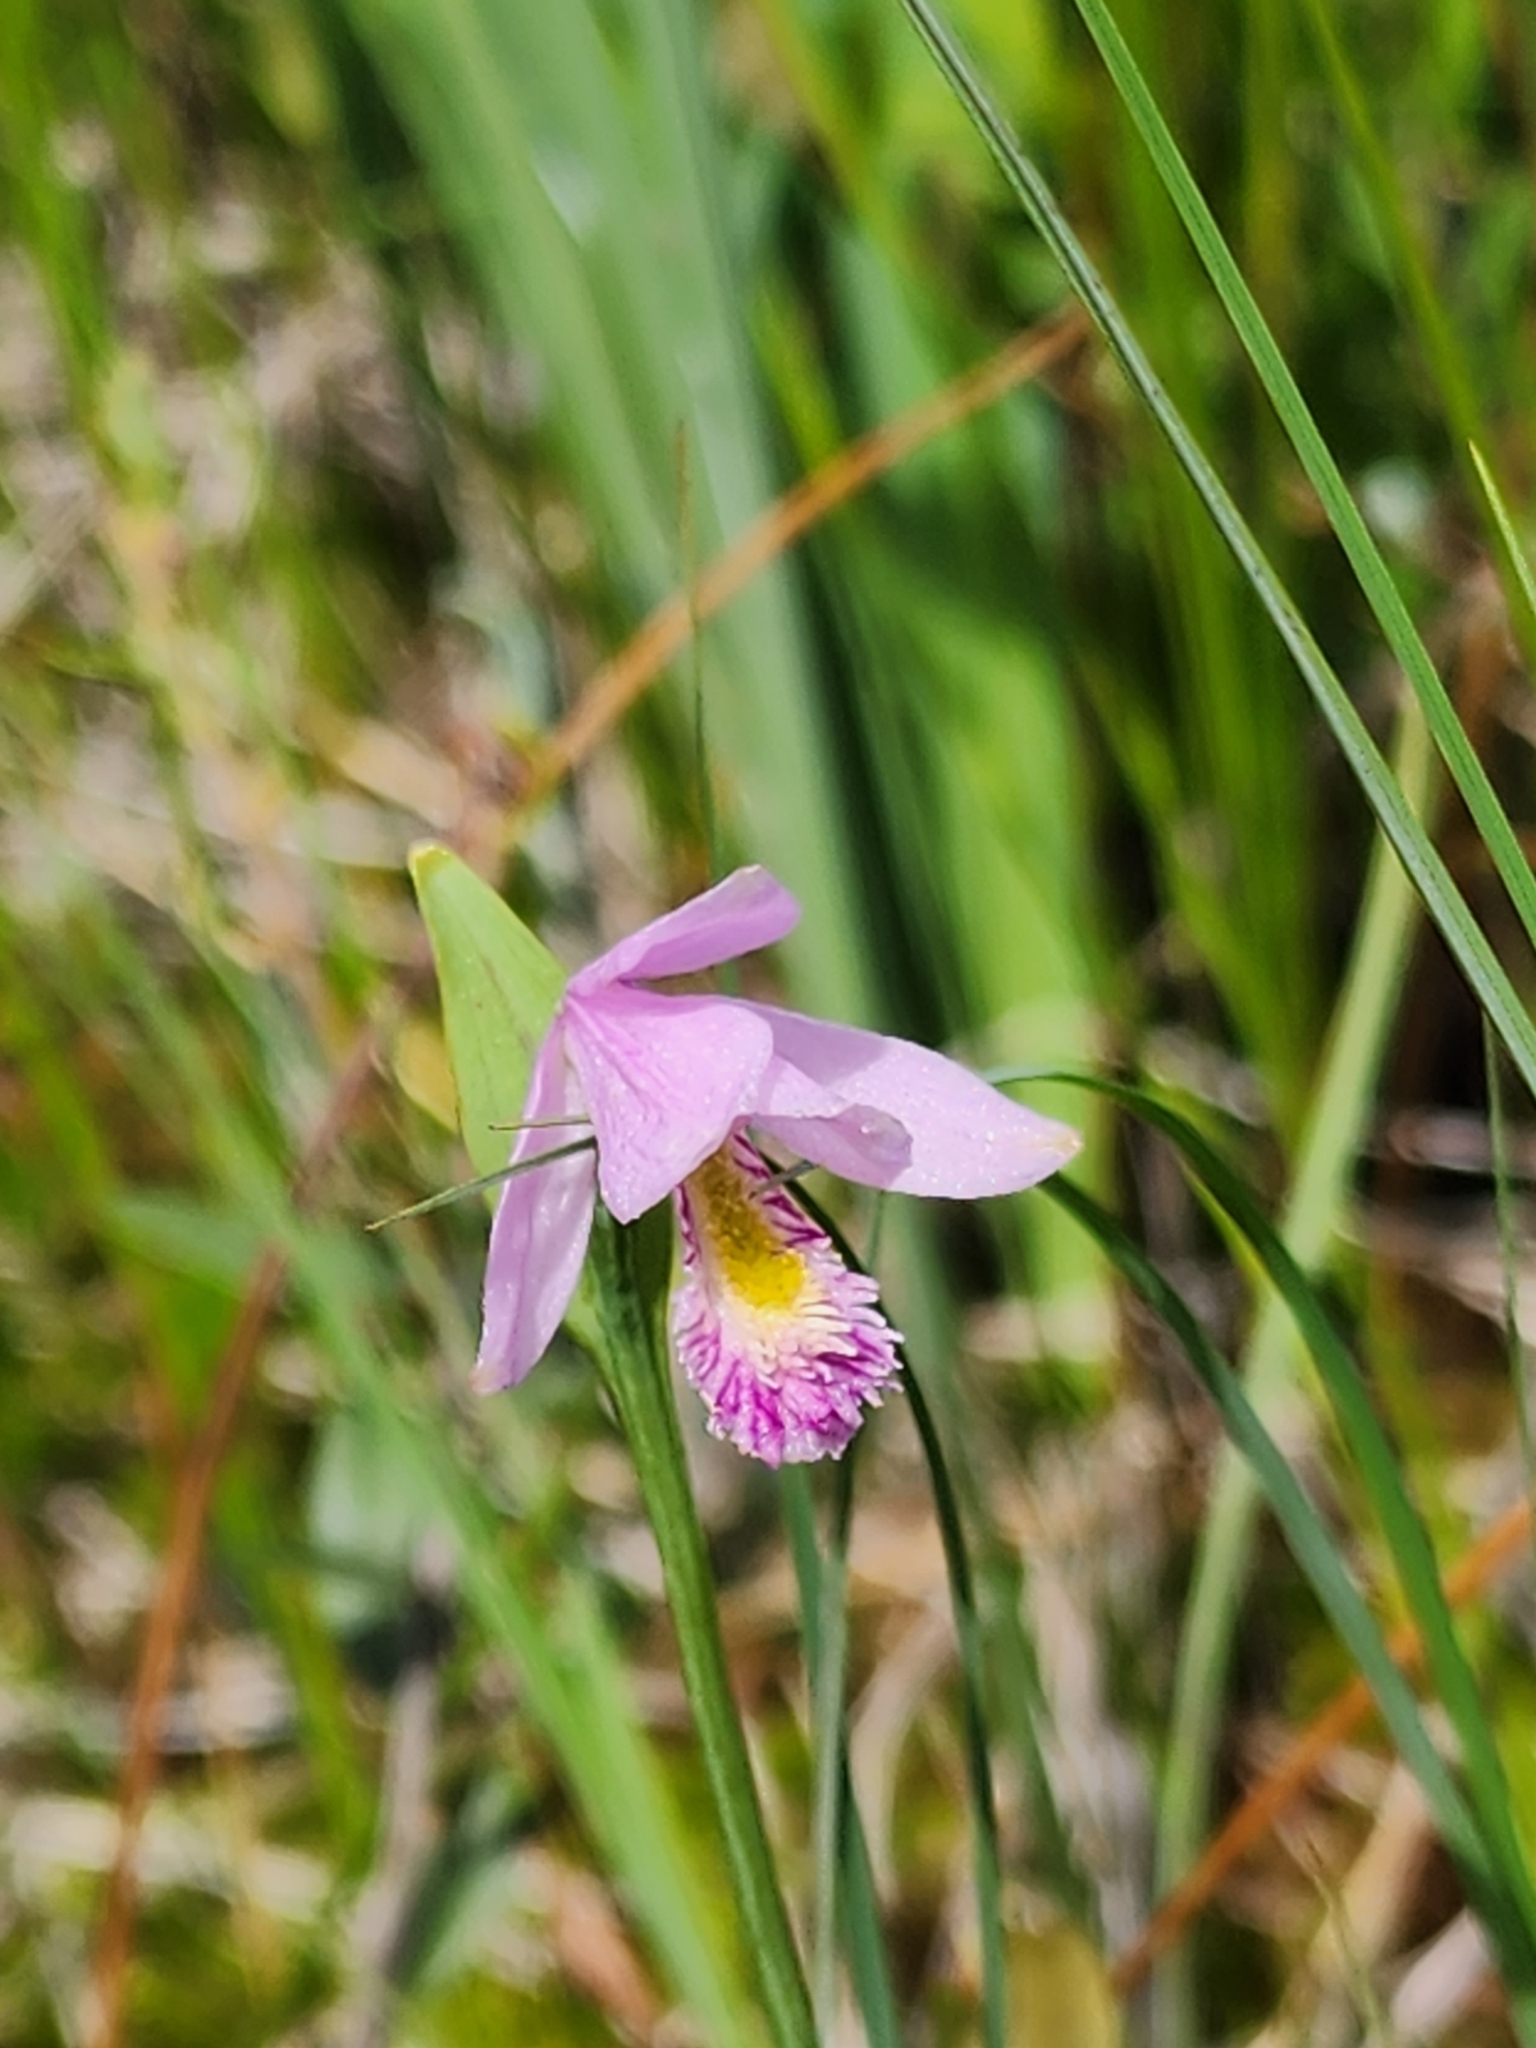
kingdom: Plantae
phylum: Tracheophyta
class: Liliopsida
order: Asparagales
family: Orchidaceae
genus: Pogonia
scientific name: Pogonia ophioglossoides
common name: Rose pogonia
